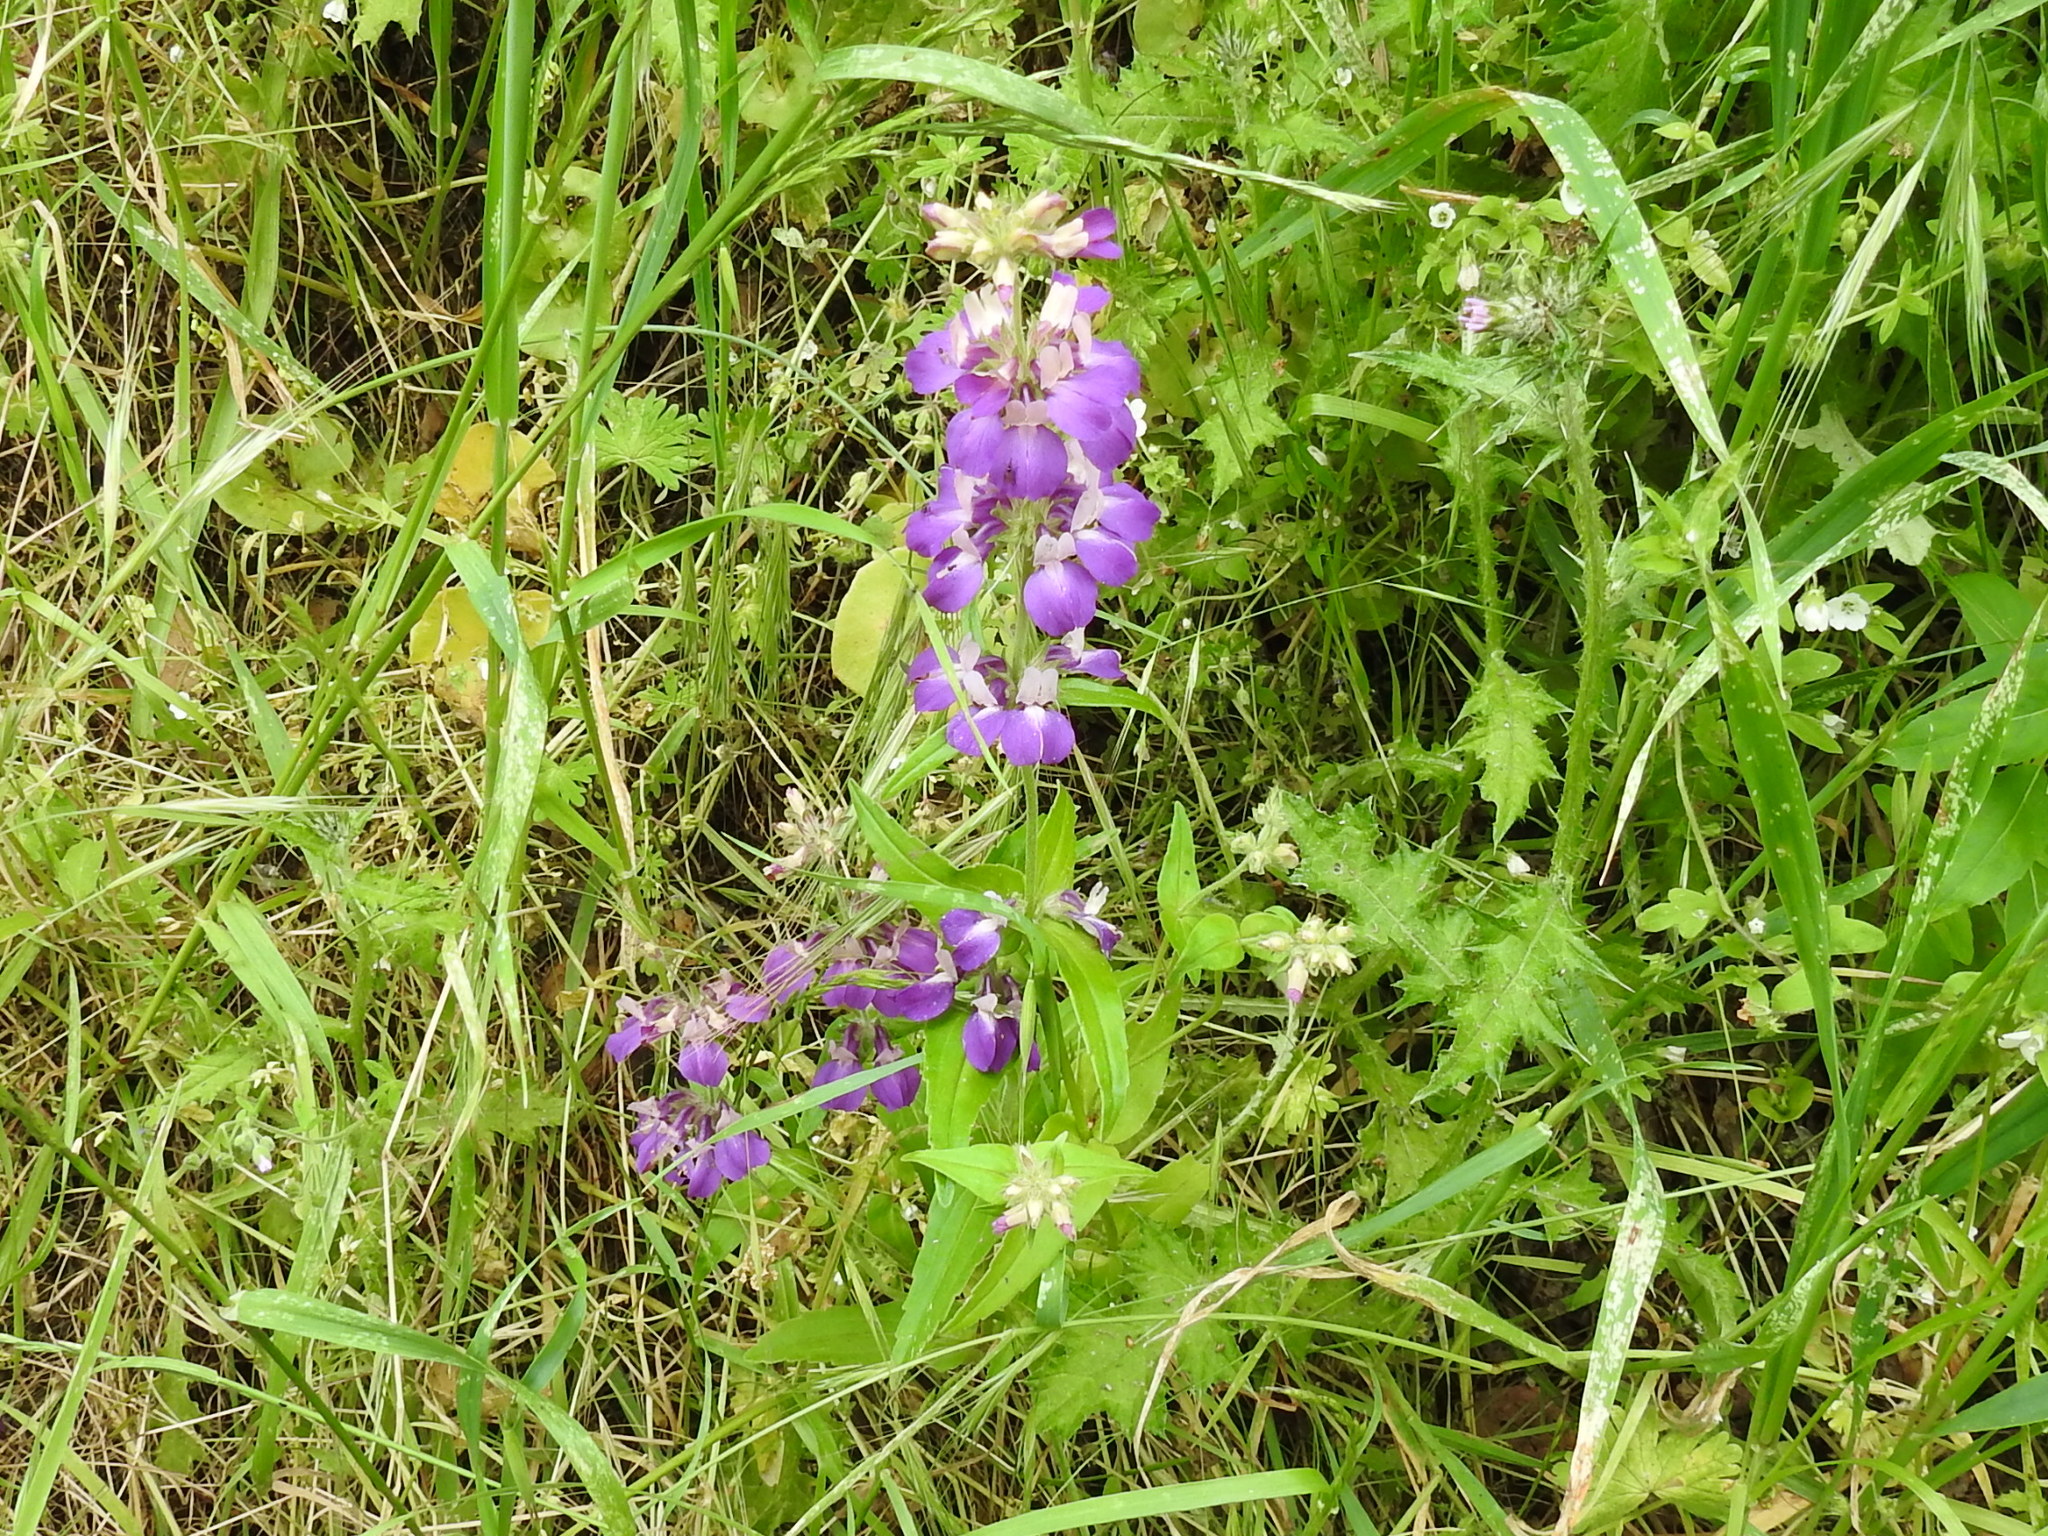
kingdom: Plantae
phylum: Tracheophyta
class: Magnoliopsida
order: Lamiales
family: Plantaginaceae
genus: Collinsia
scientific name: Collinsia heterophylla
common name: Chinese-houses
